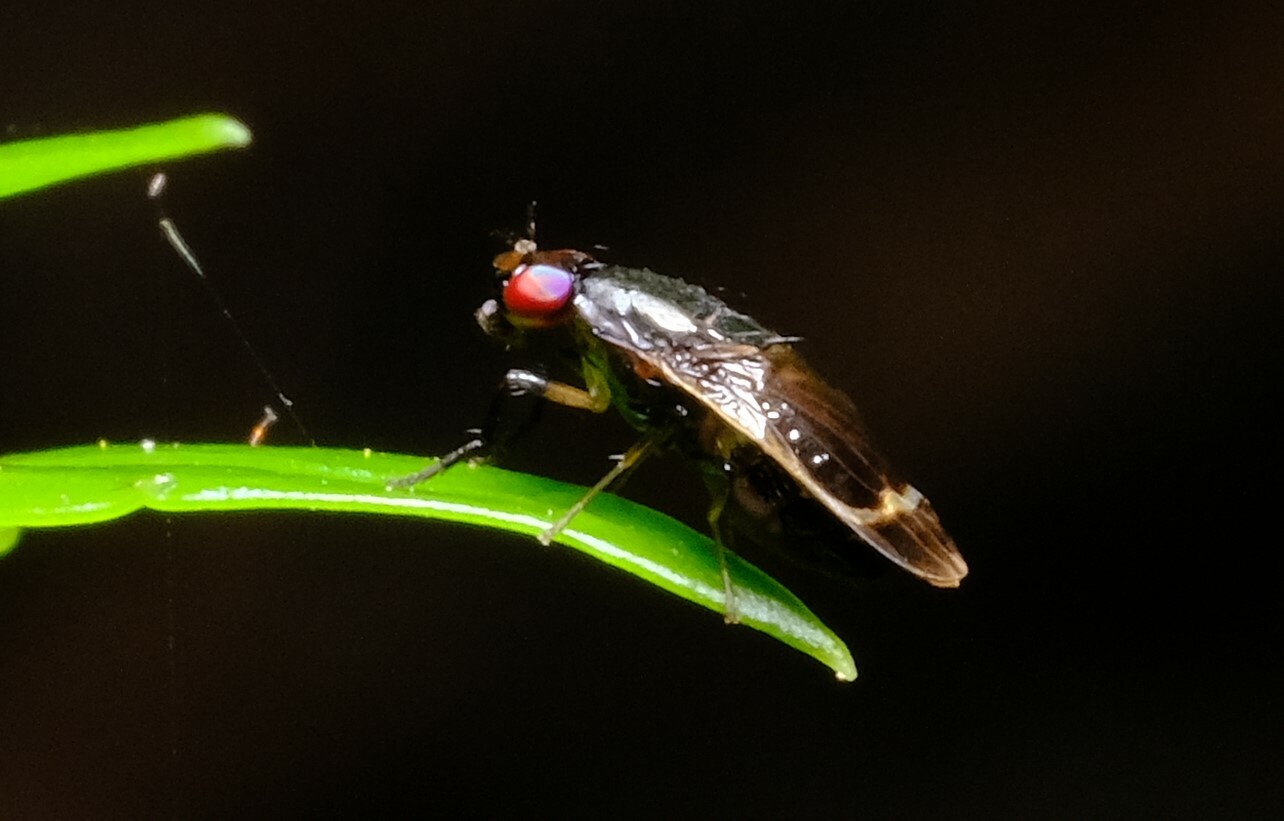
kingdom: Animalia
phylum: Arthropoda
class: Insecta
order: Diptera
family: Lauxaniidae
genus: Depressa
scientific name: Depressa albicosta
